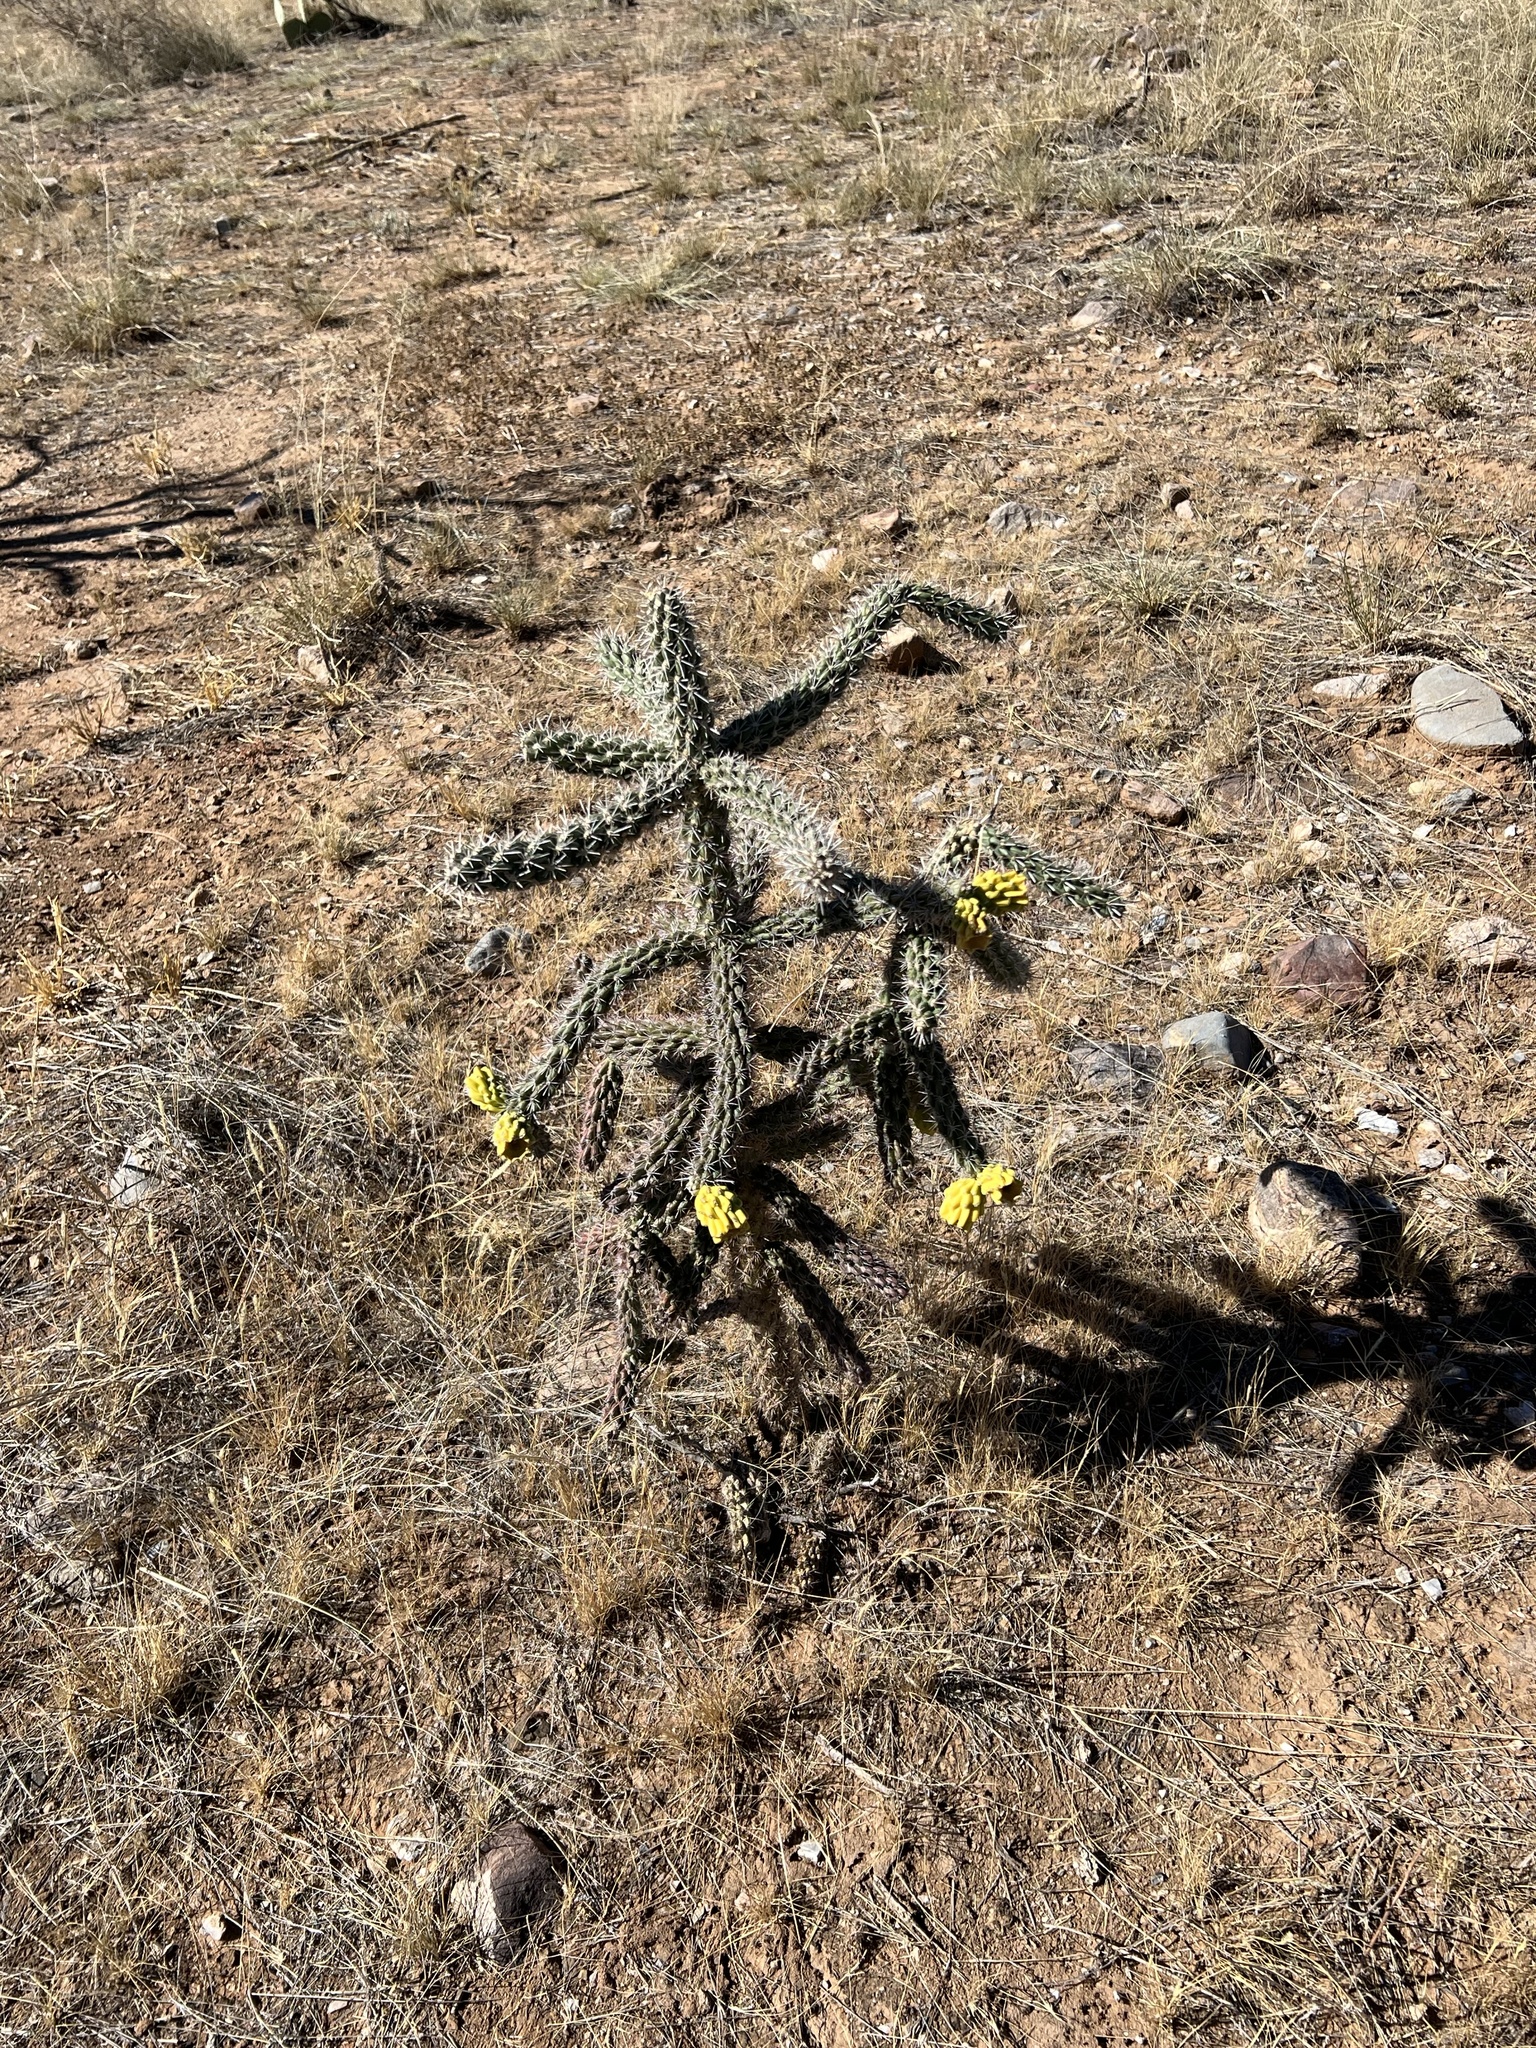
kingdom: Plantae
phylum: Tracheophyta
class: Magnoliopsida
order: Caryophyllales
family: Cactaceae
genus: Cylindropuntia
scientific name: Cylindropuntia imbricata
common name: Candelabrum cactus
